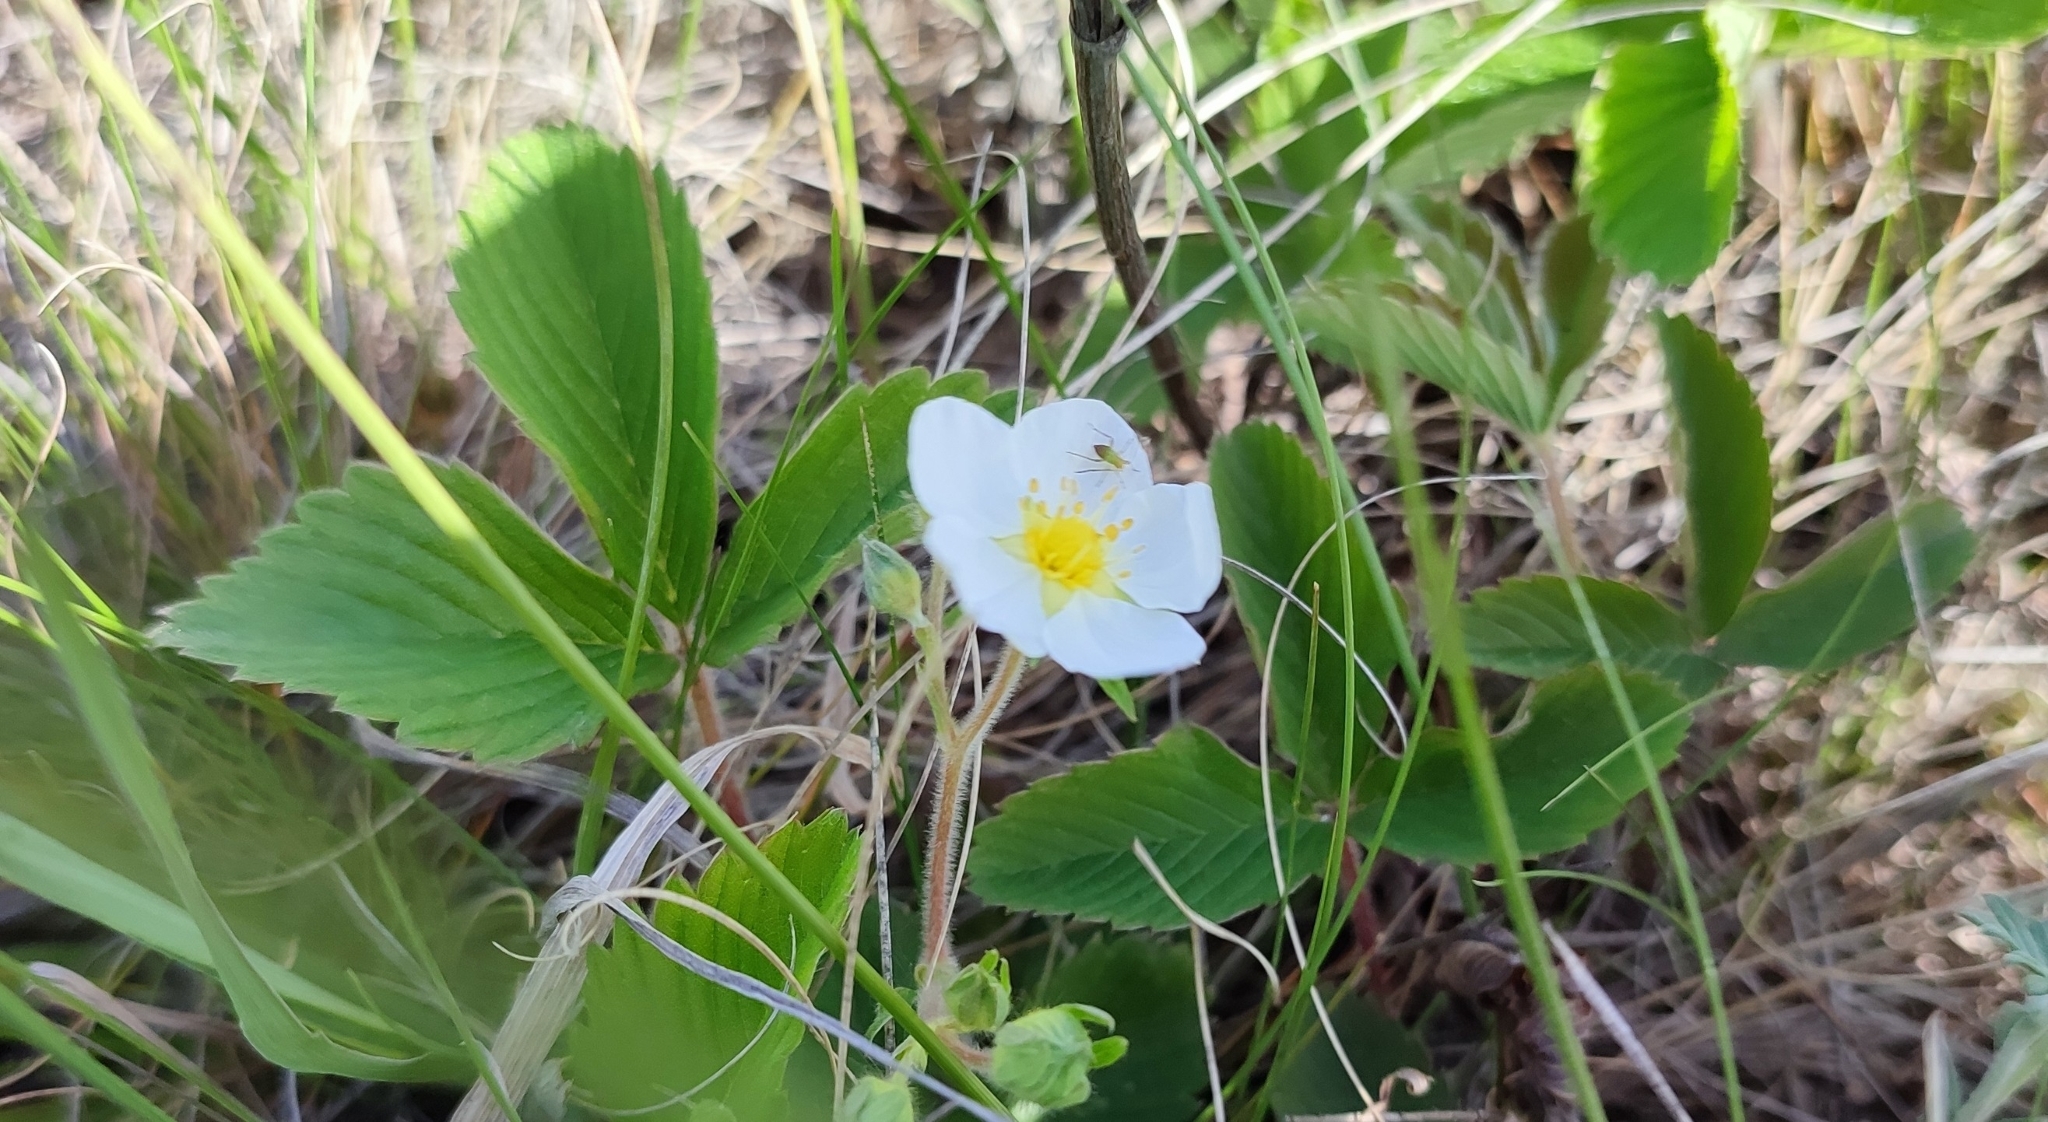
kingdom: Plantae
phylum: Tracheophyta
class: Magnoliopsida
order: Rosales
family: Rosaceae
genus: Fragaria
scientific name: Fragaria viridis
